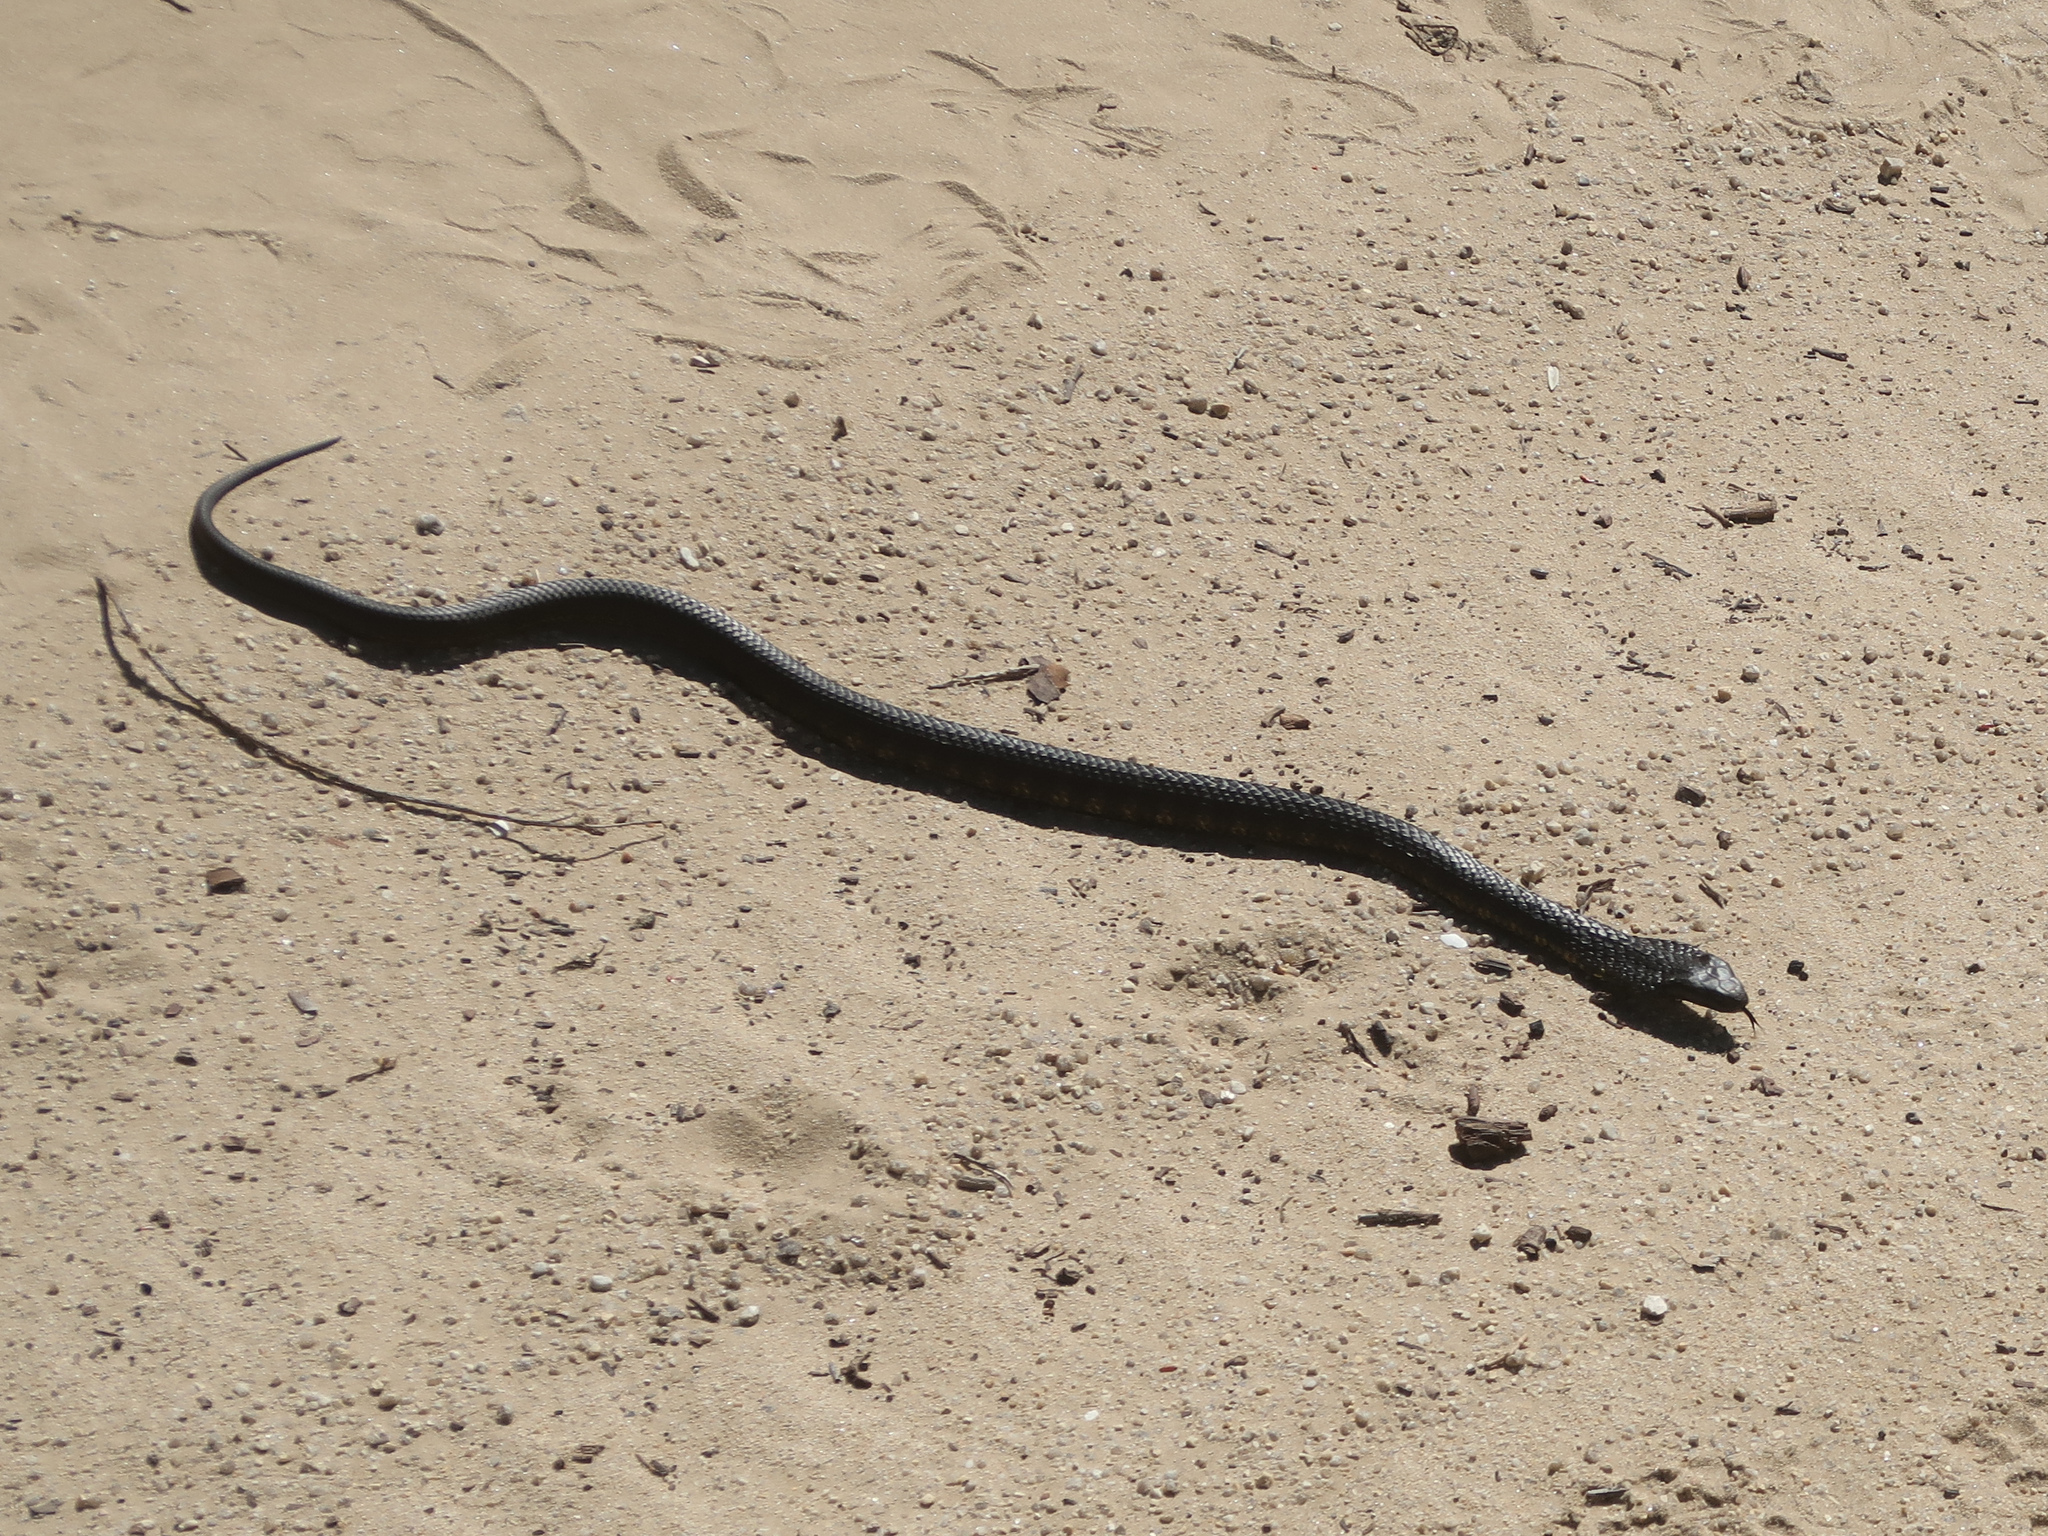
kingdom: Animalia
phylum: Chordata
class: Squamata
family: Elapidae
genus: Notechis
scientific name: Notechis scutatus
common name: Mainland tiger snake
